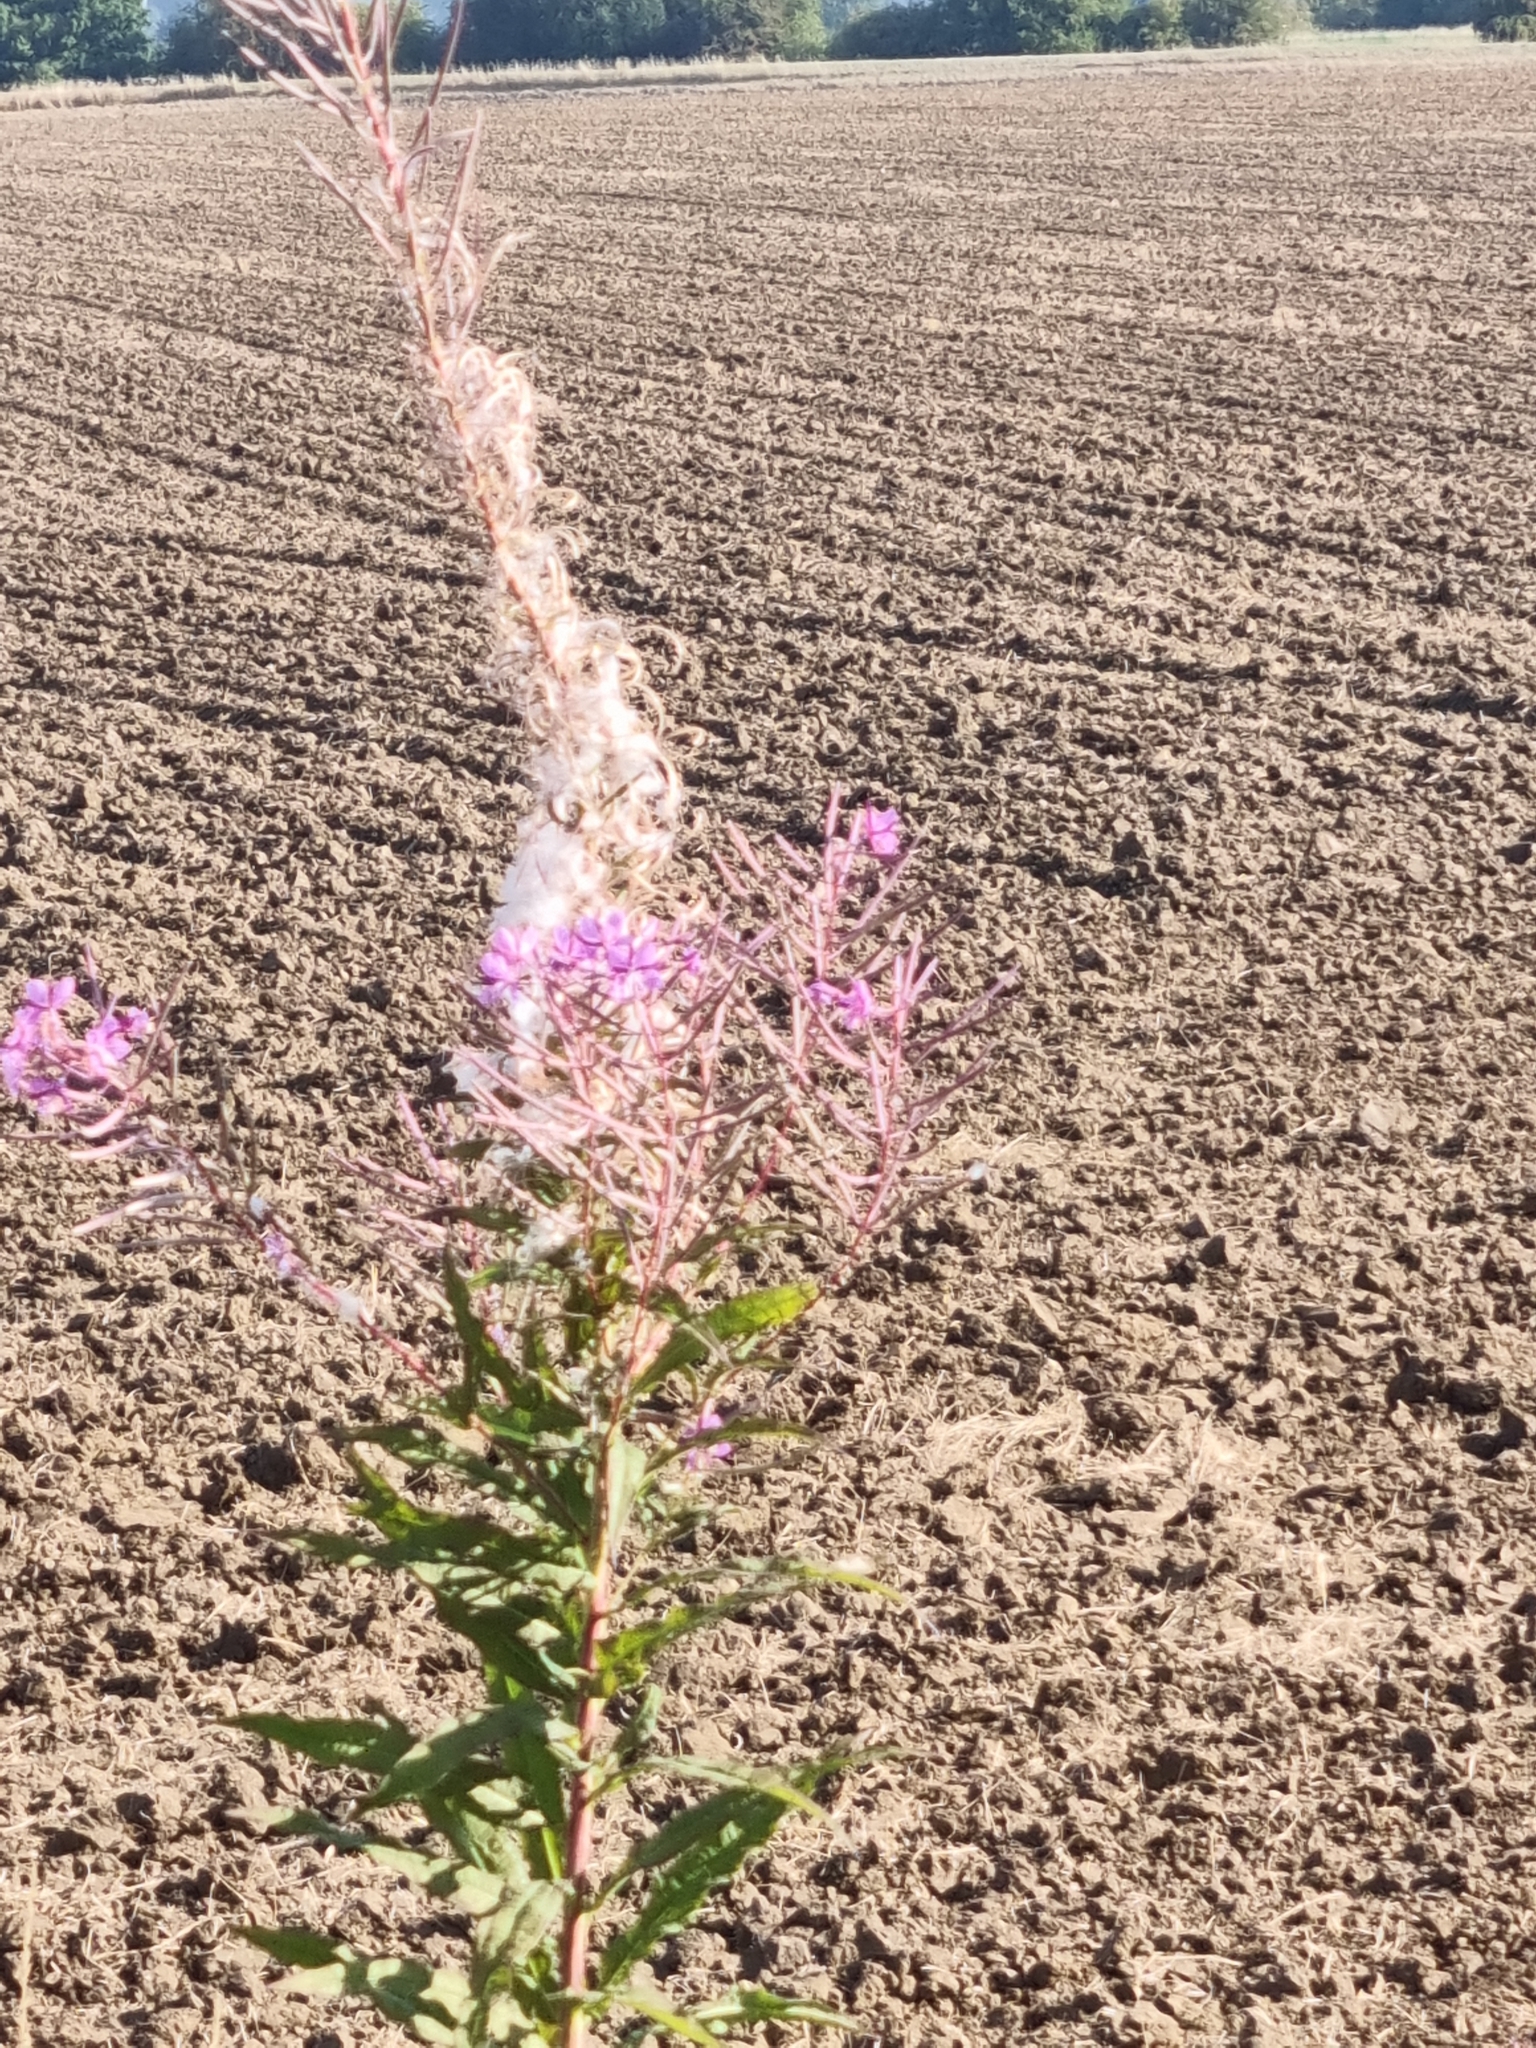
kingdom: Plantae
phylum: Tracheophyta
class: Magnoliopsida
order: Myrtales
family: Onagraceae
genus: Chamaenerion
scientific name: Chamaenerion angustifolium
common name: Fireweed
